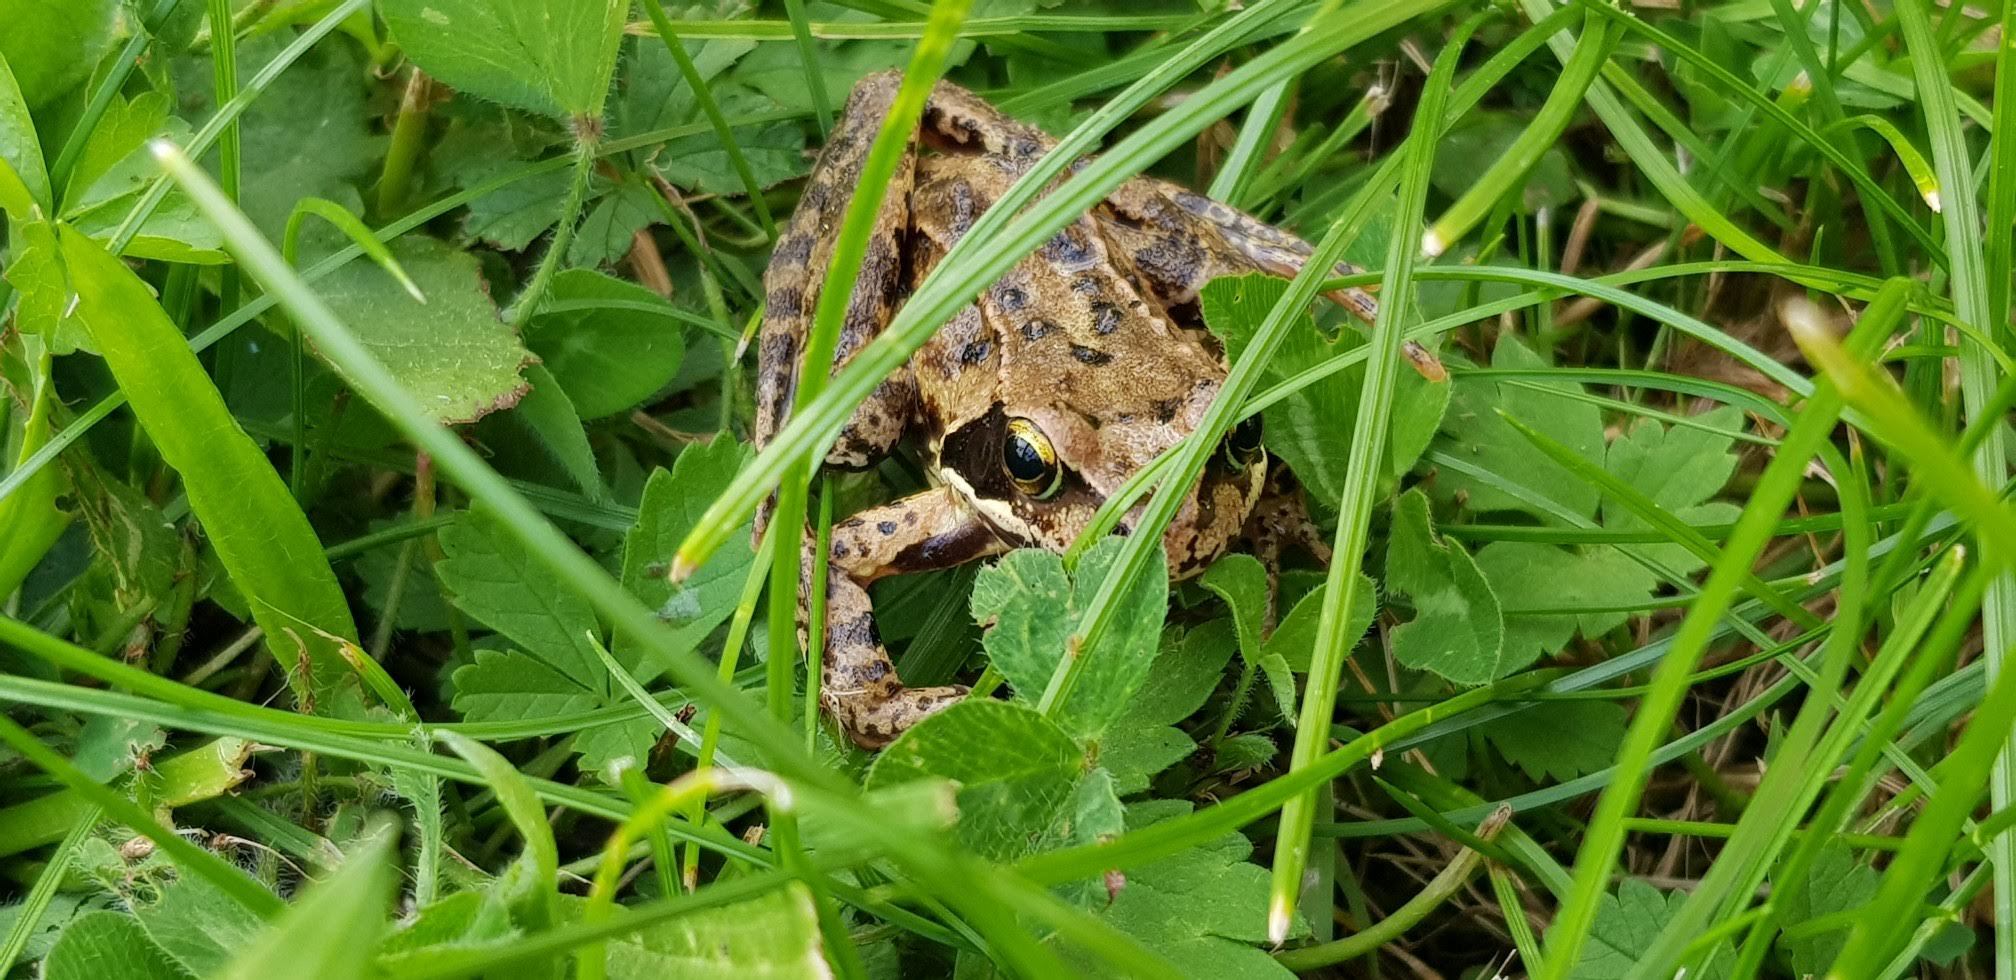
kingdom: Animalia
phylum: Chordata
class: Amphibia
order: Anura
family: Ranidae
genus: Rana
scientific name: Rana temporaria
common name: Common frog
